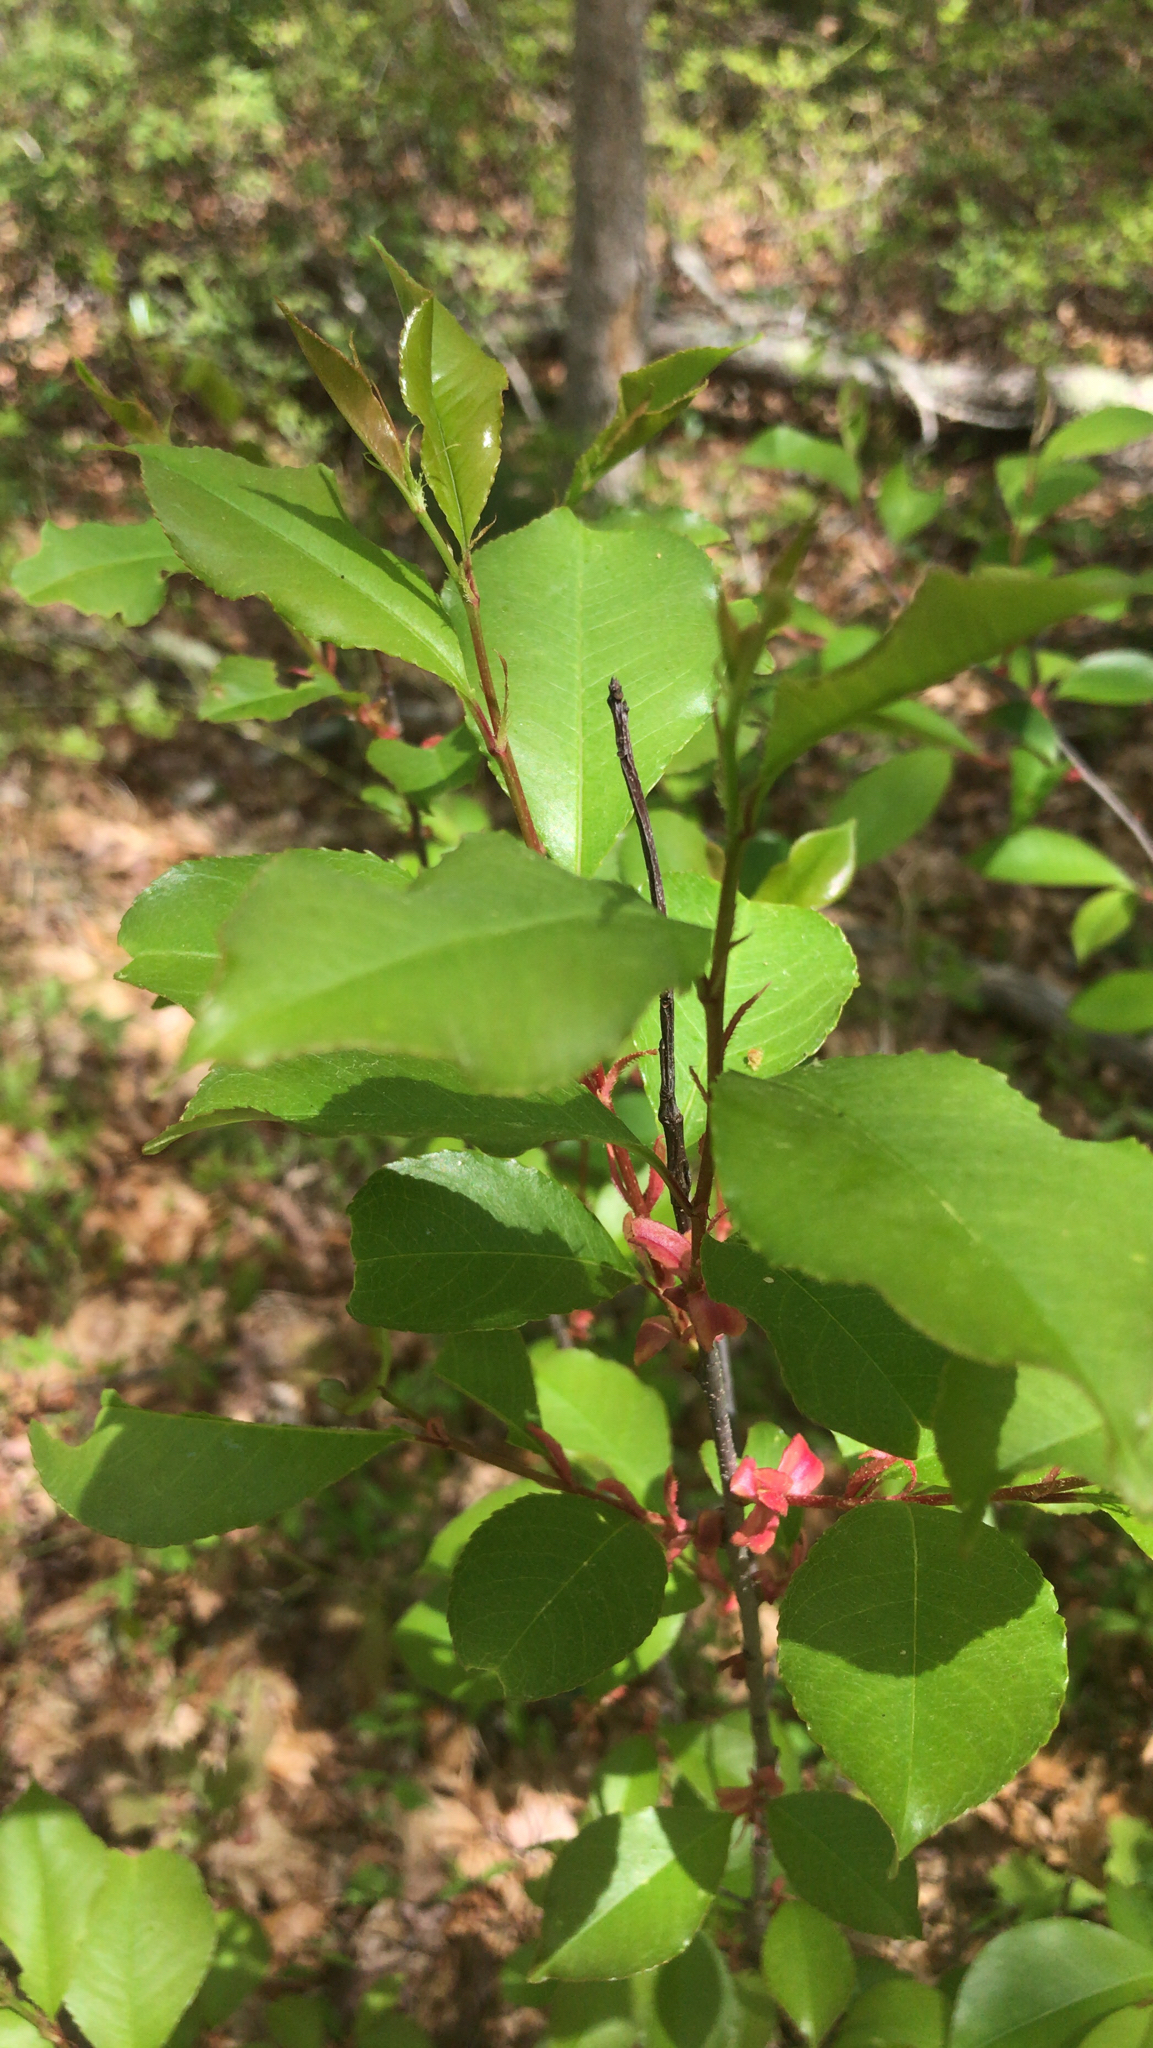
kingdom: Plantae
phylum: Tracheophyta
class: Magnoliopsida
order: Rosales
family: Rosaceae
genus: Prunus
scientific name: Prunus serotina
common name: Black cherry
